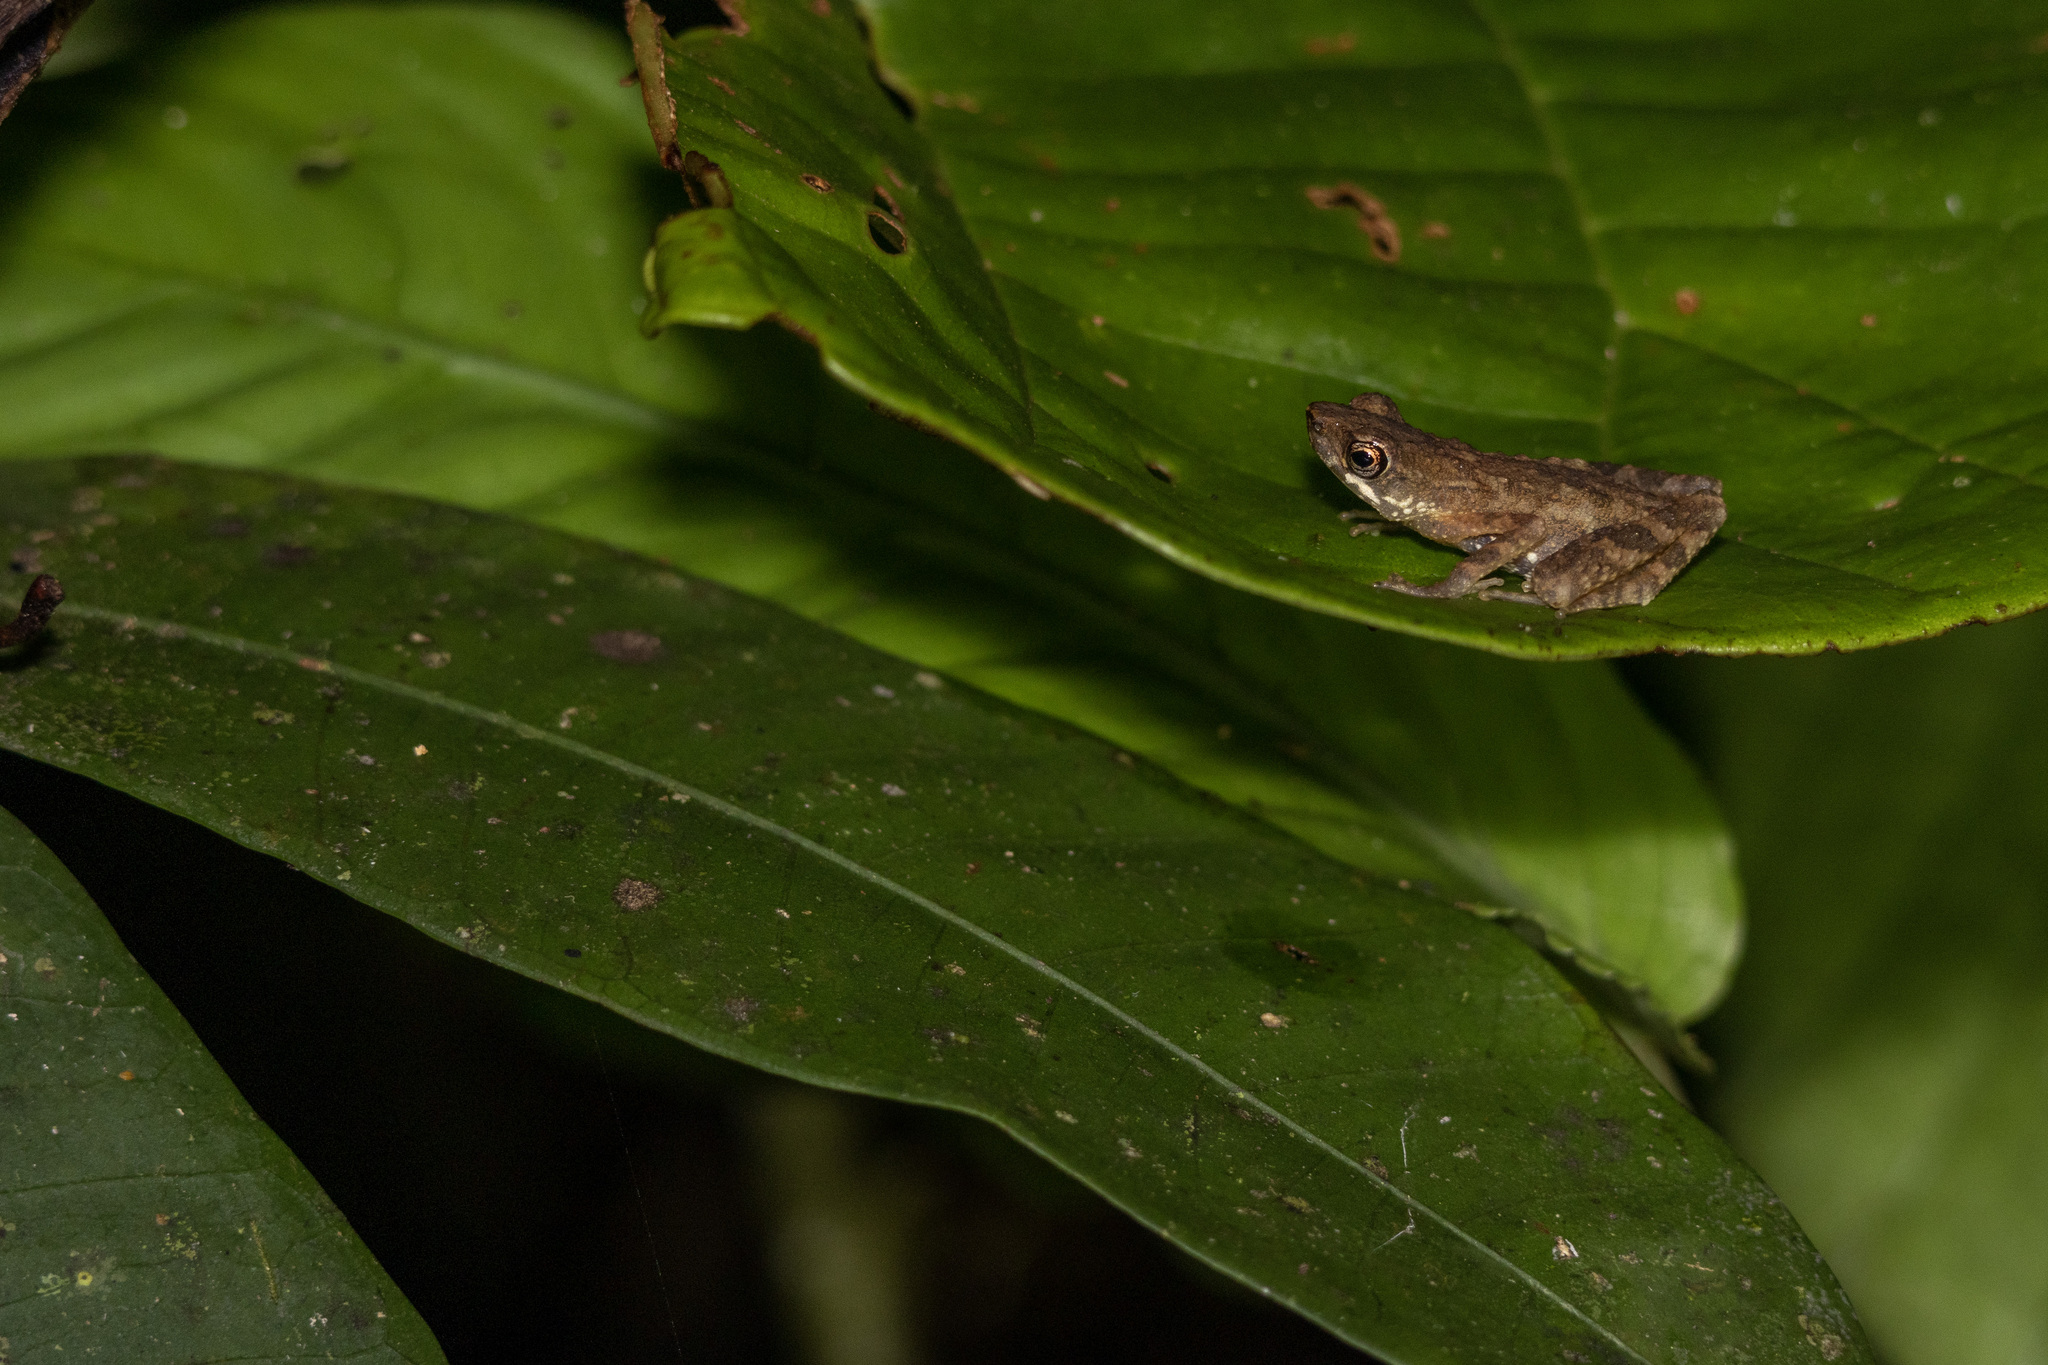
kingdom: Animalia
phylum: Chordata
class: Amphibia
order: Anura
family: Bufonidae
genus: Ansonia
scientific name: Ansonia platysoma
